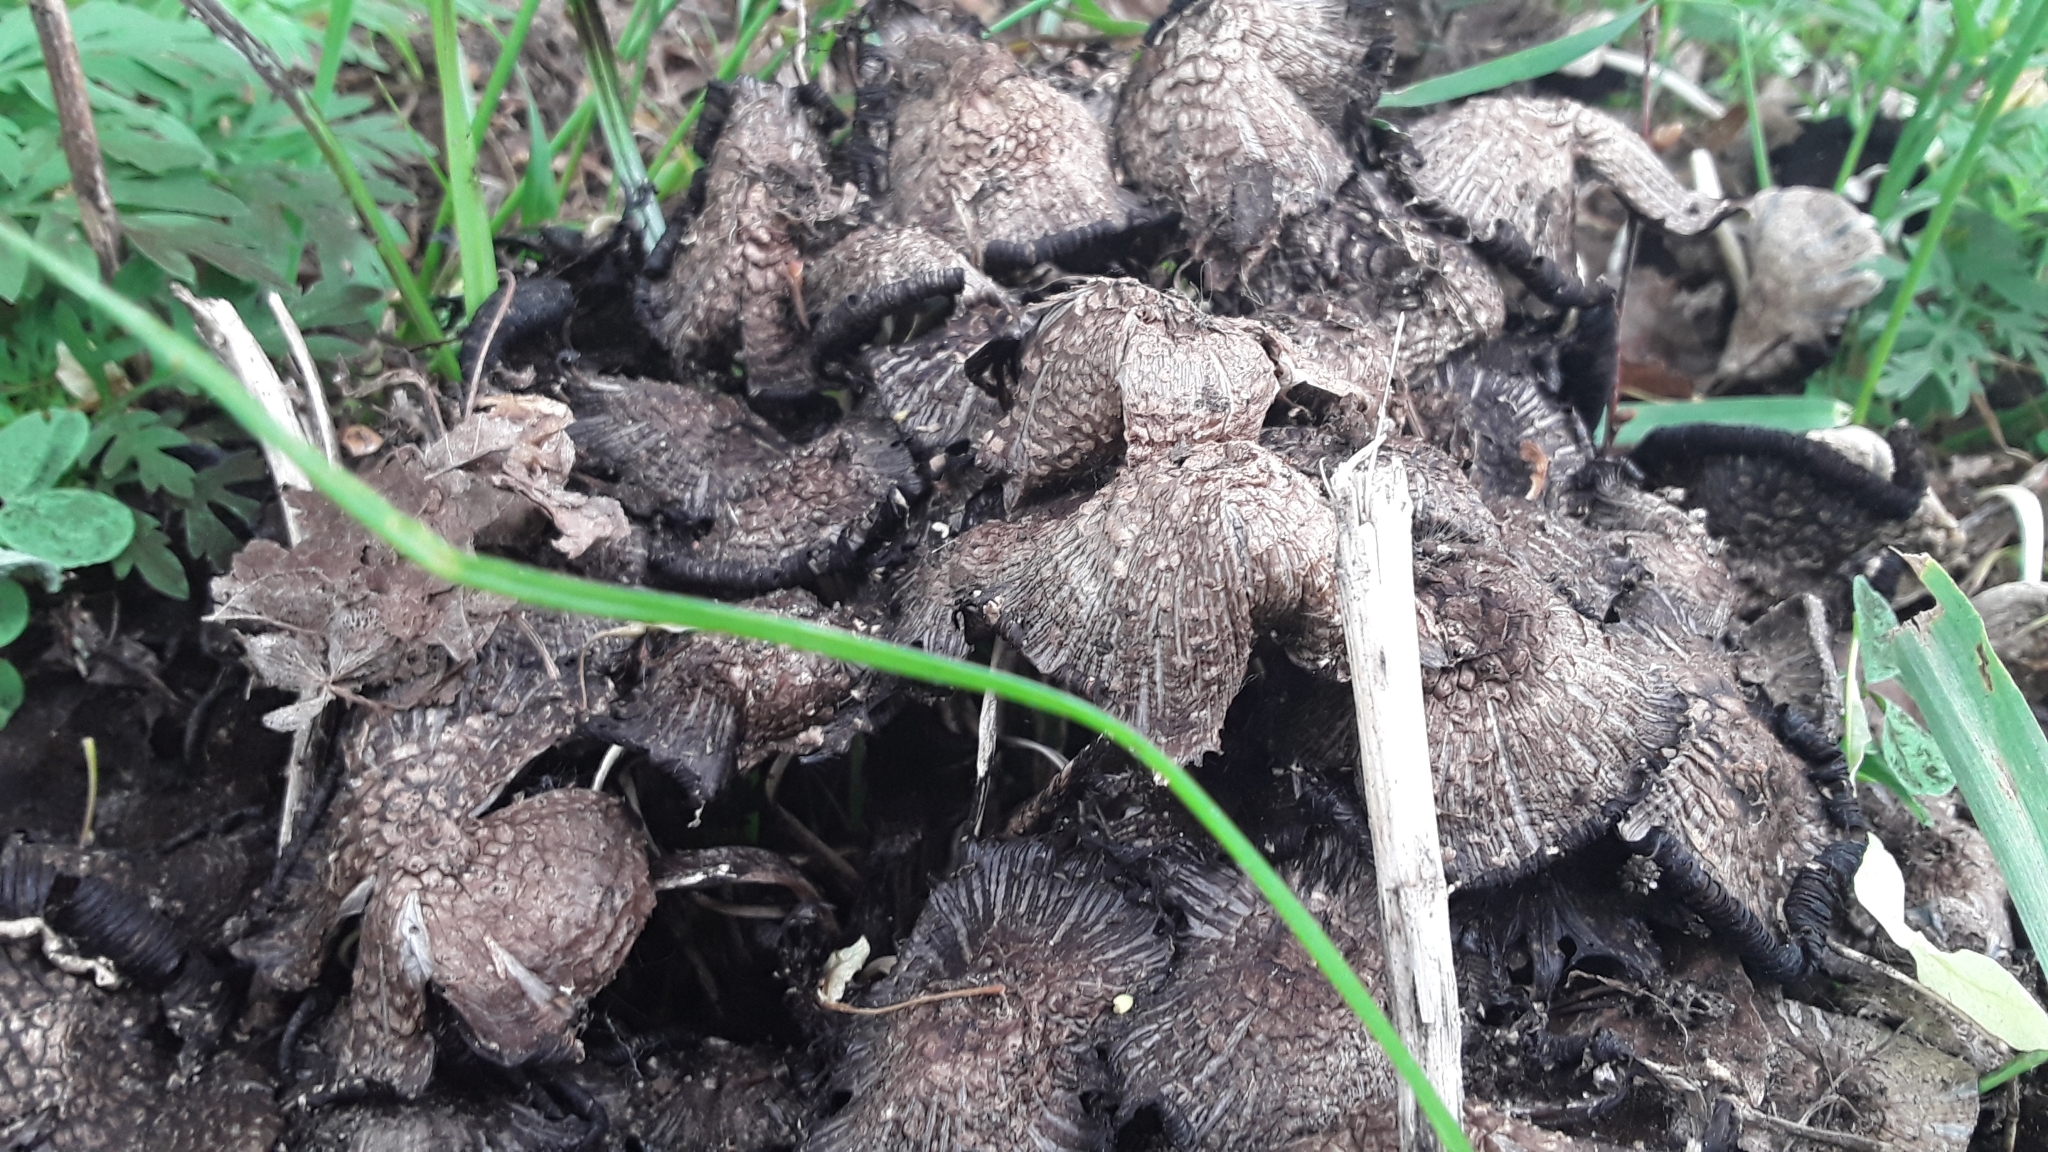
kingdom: Fungi
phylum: Basidiomycota
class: Agaricomycetes
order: Agaricales
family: Psathyrellaceae
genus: Coprinopsis
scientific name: Coprinopsis
